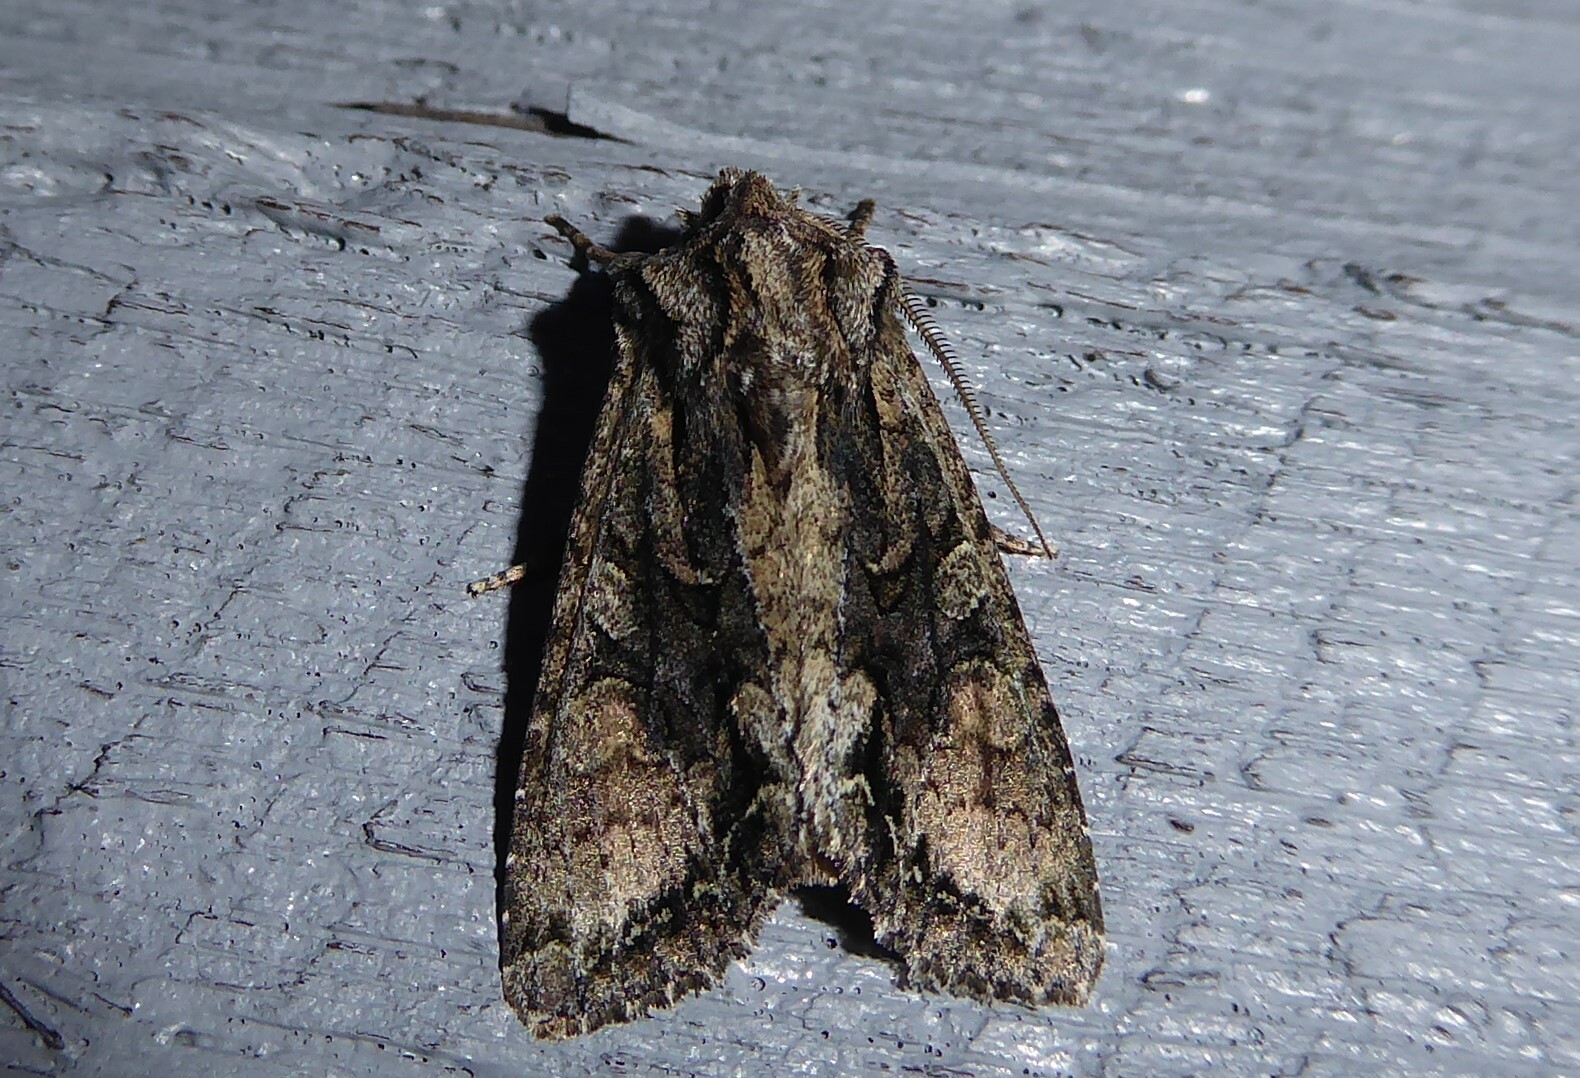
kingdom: Animalia
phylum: Arthropoda
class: Insecta
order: Lepidoptera
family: Noctuidae
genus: Ichneutica
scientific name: Ichneutica mutans
